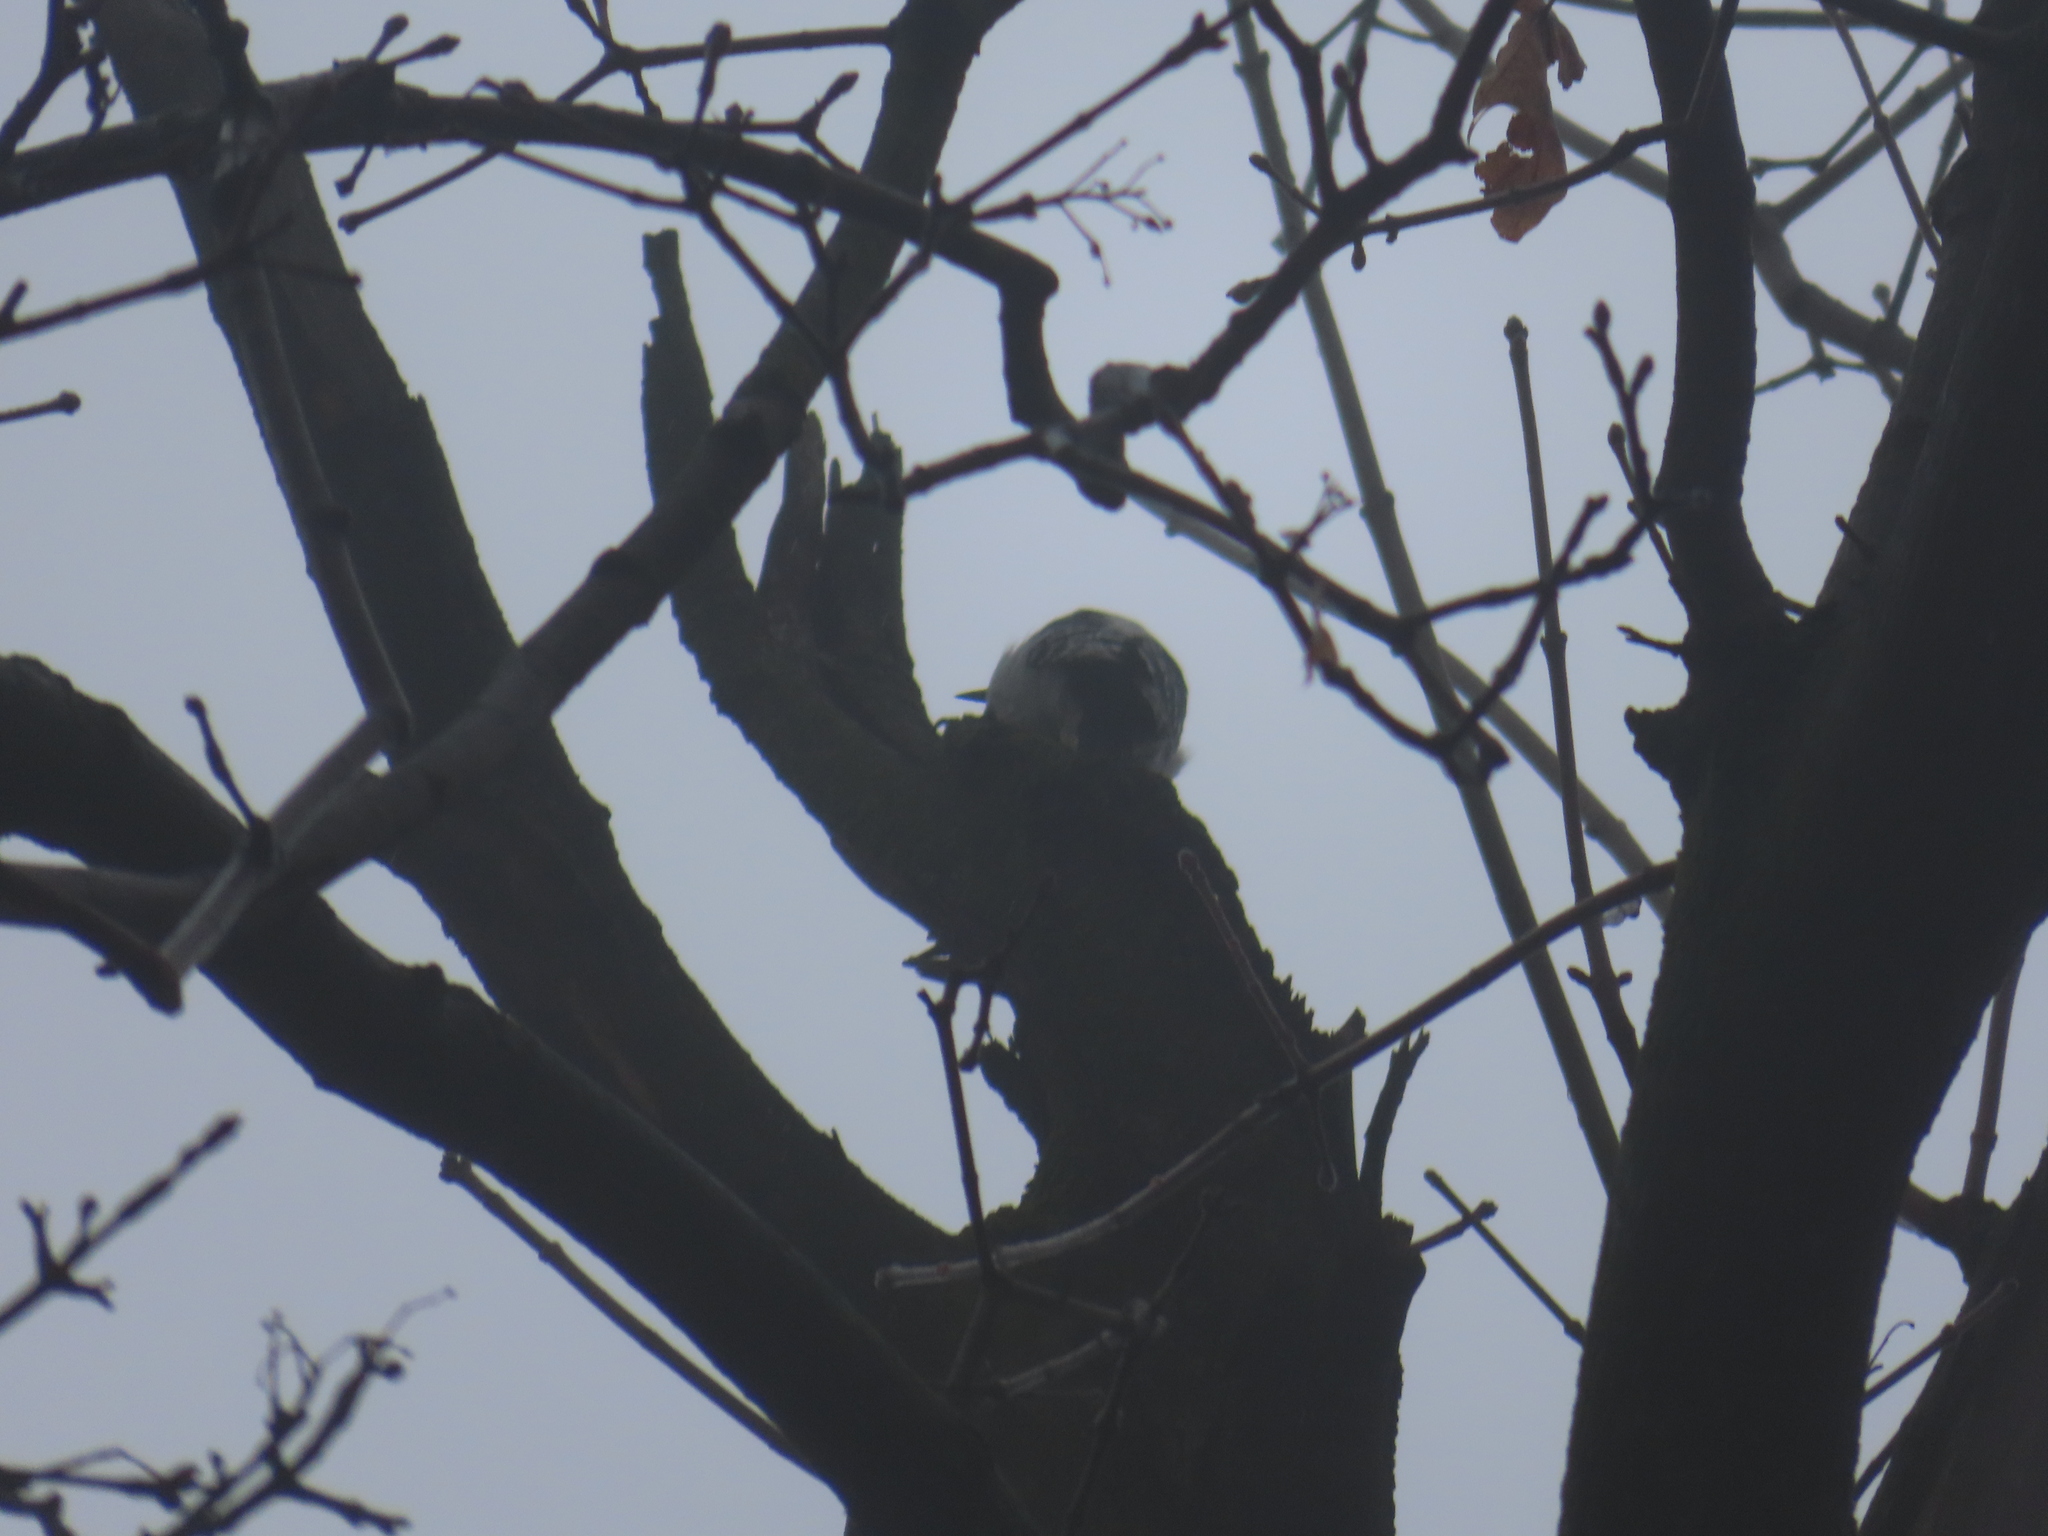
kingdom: Animalia
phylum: Chordata
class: Aves
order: Piciformes
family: Picidae
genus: Dryobates
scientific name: Dryobates pubescens
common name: Downy woodpecker
